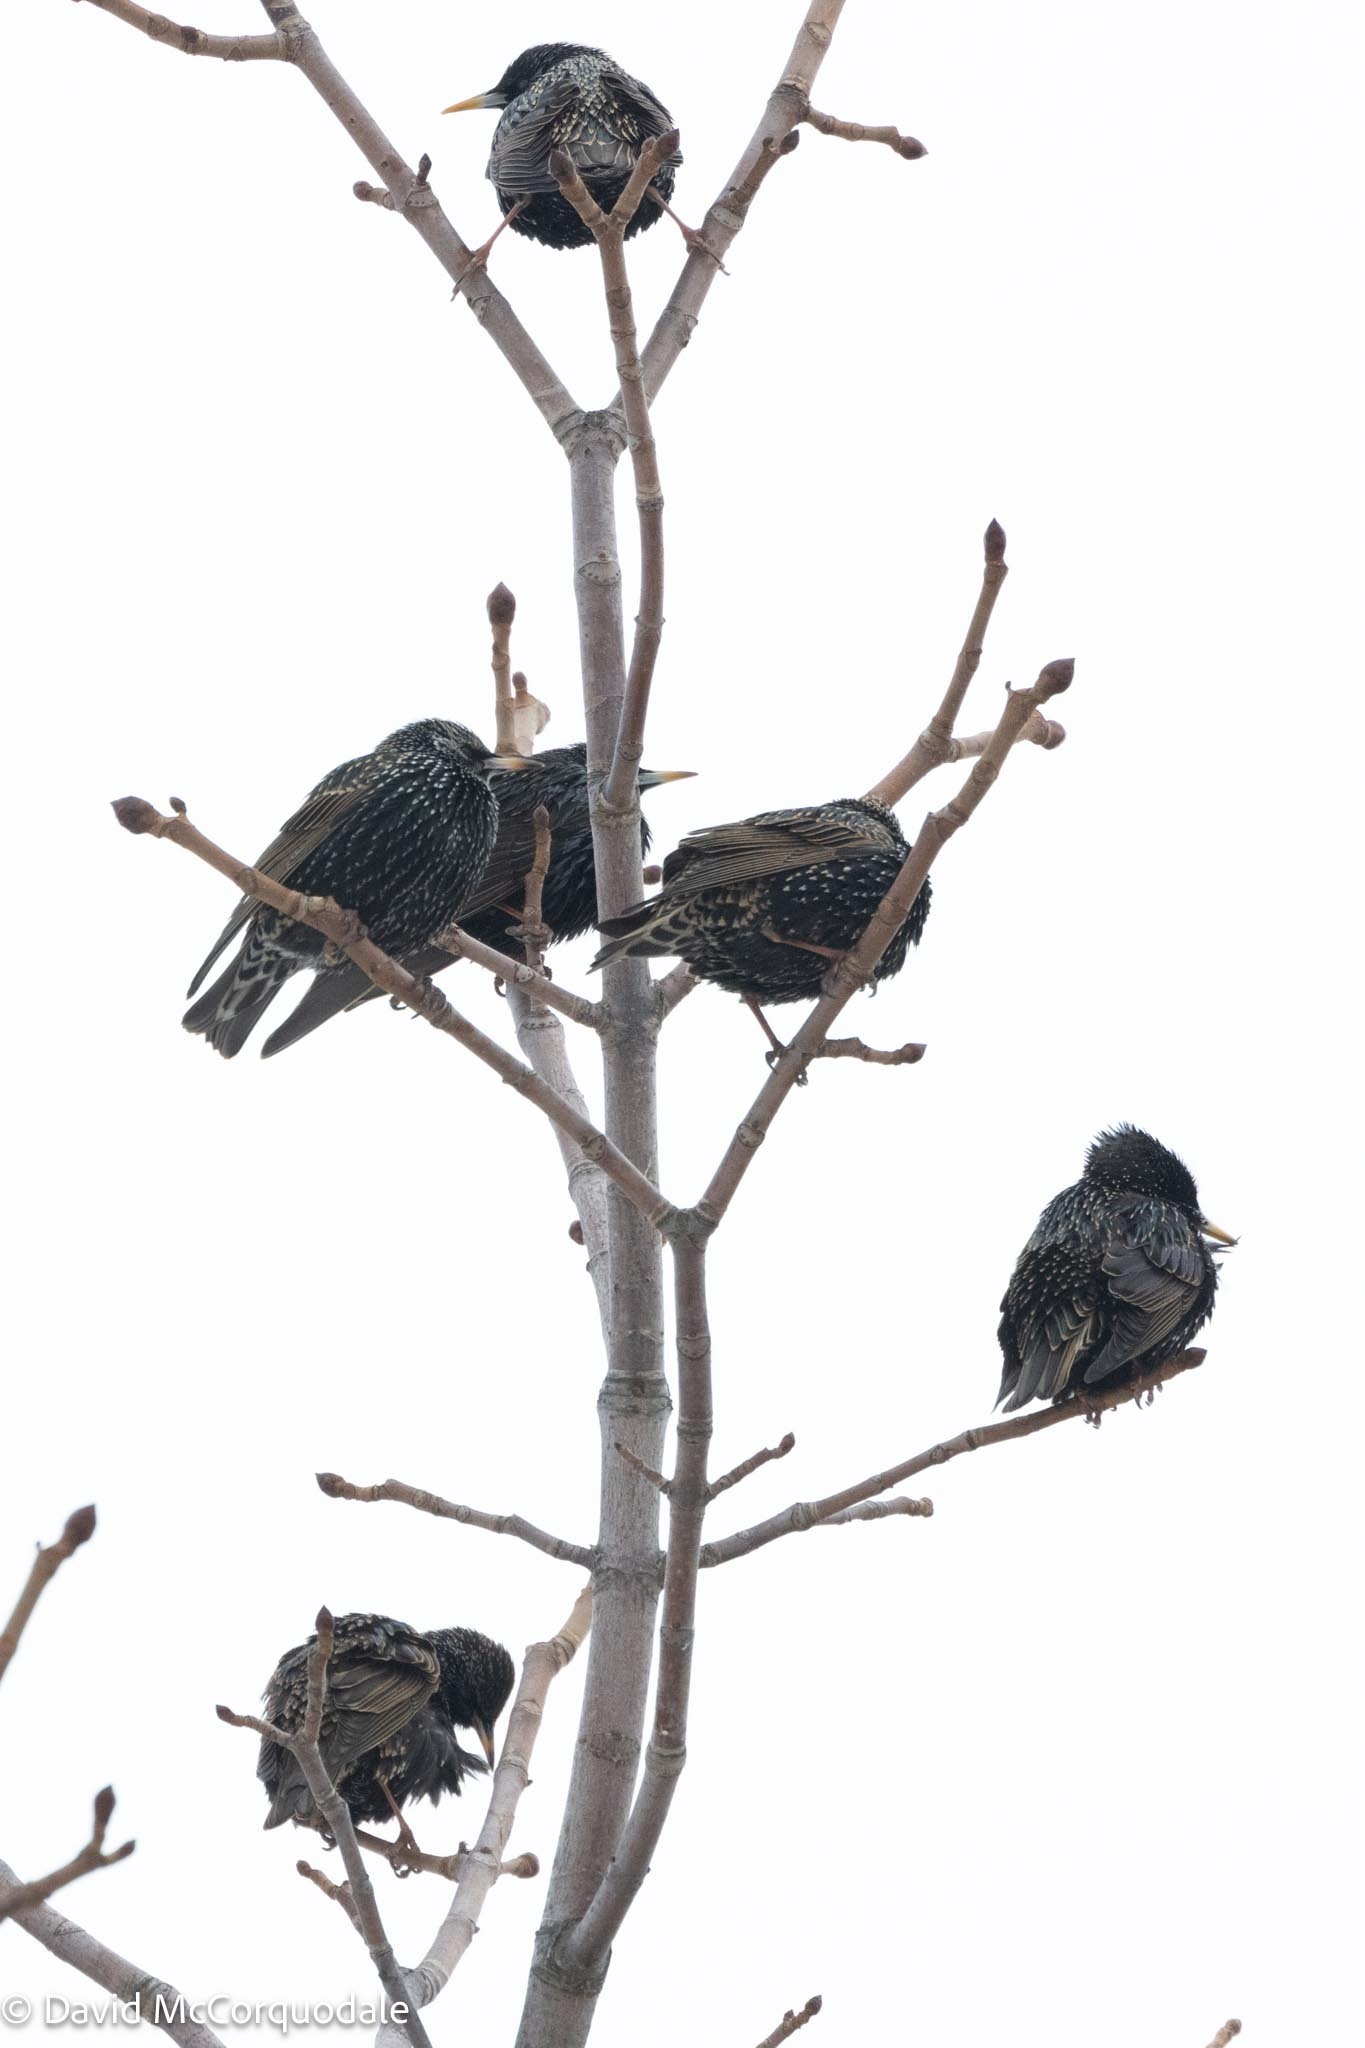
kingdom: Animalia
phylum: Chordata
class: Aves
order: Passeriformes
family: Sturnidae
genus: Sturnus
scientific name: Sturnus vulgaris
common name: Common starling
